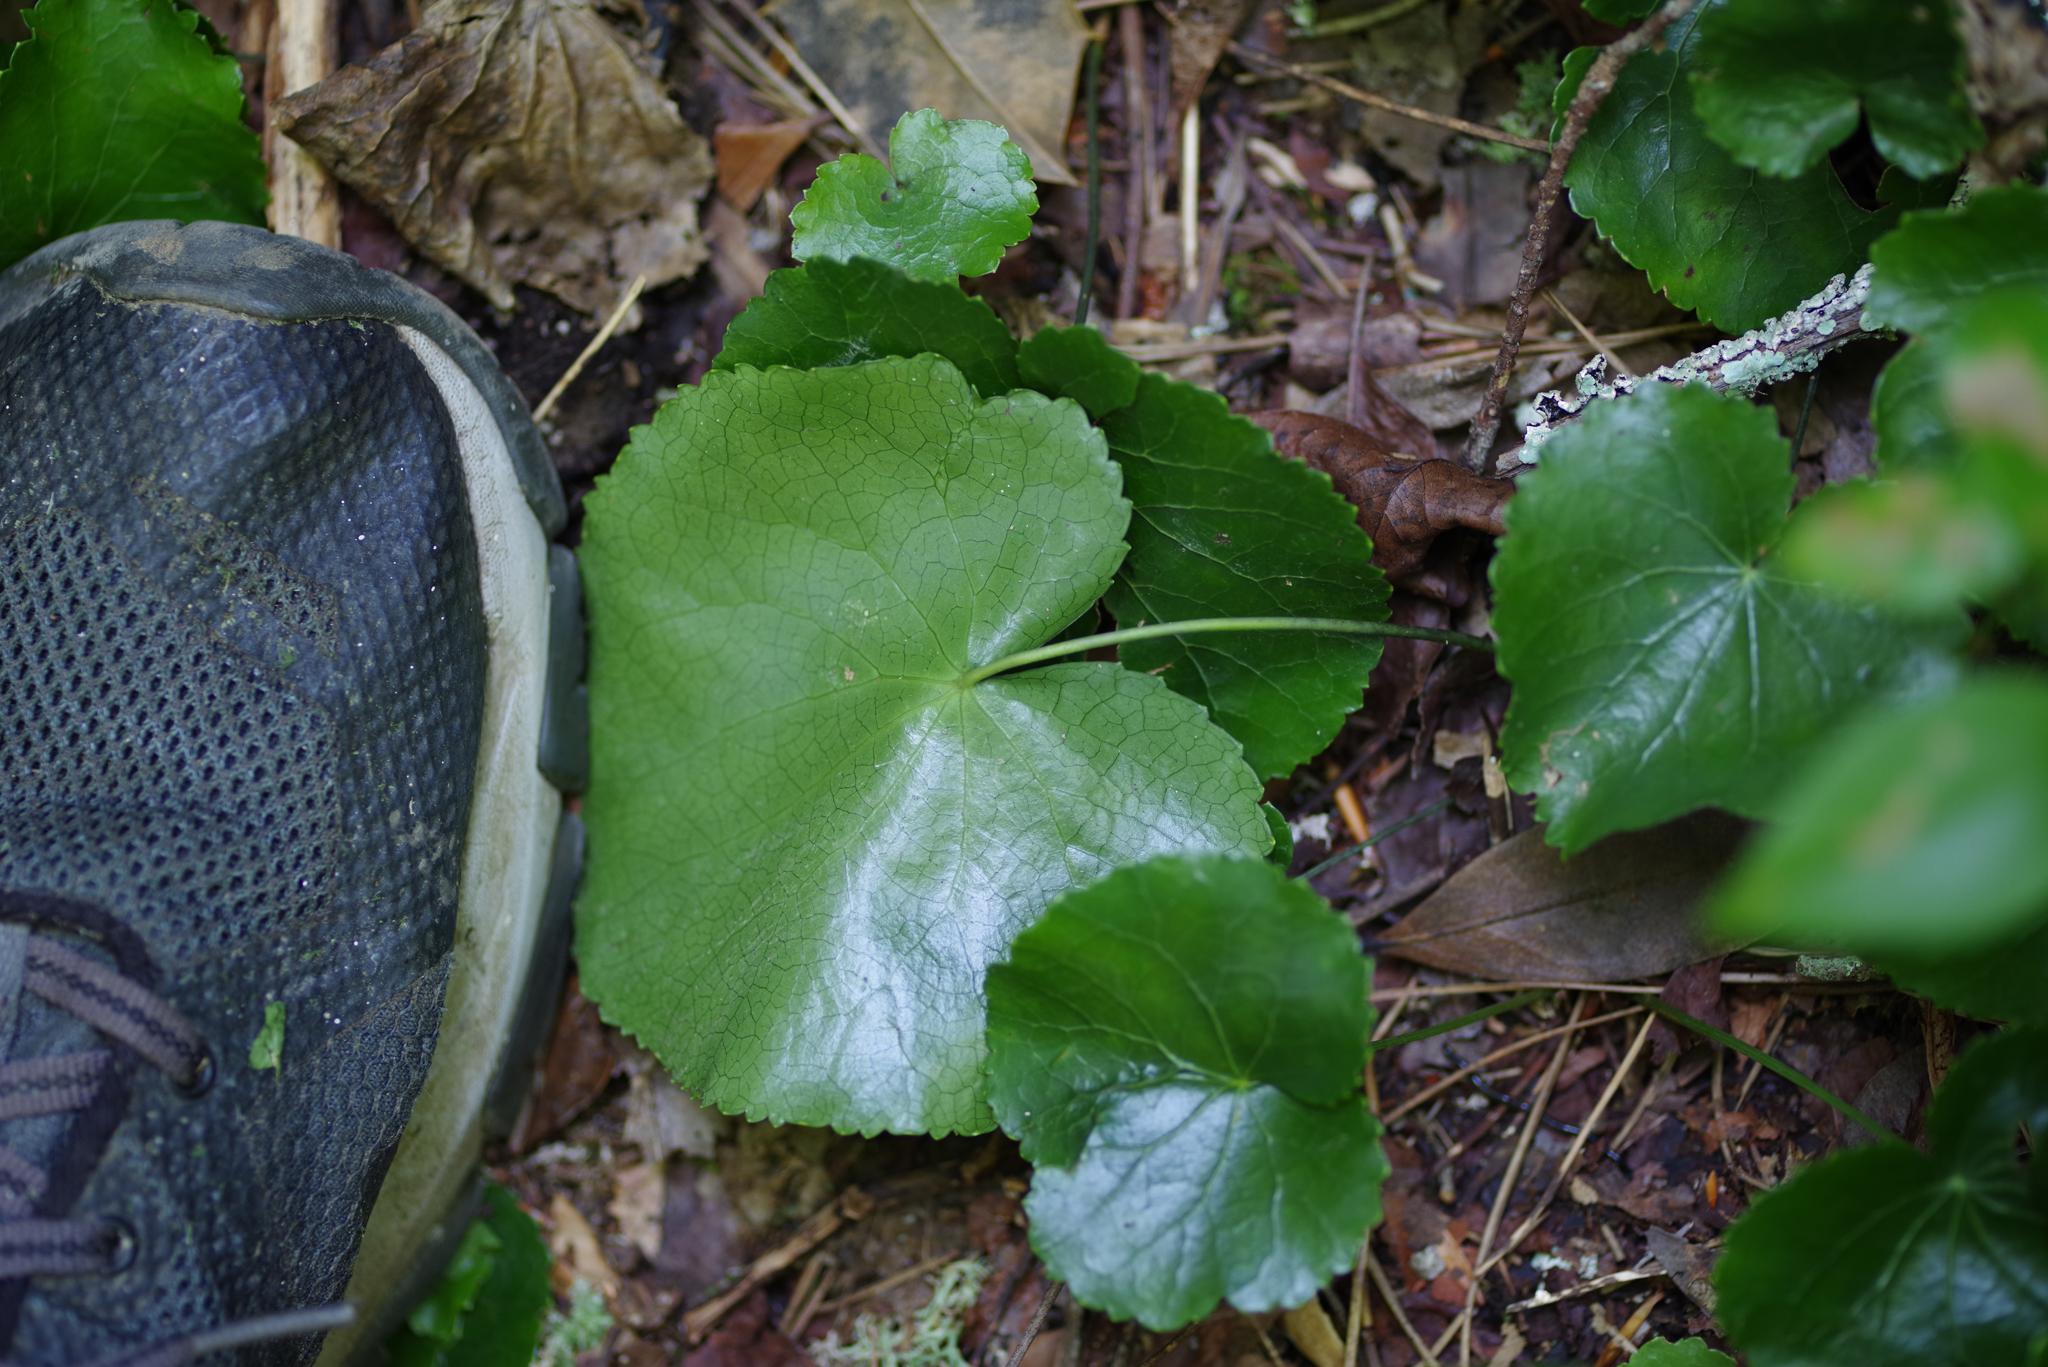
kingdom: Plantae
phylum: Tracheophyta
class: Magnoliopsida
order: Ericales
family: Diapensiaceae
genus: Galax
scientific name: Galax urceolata
